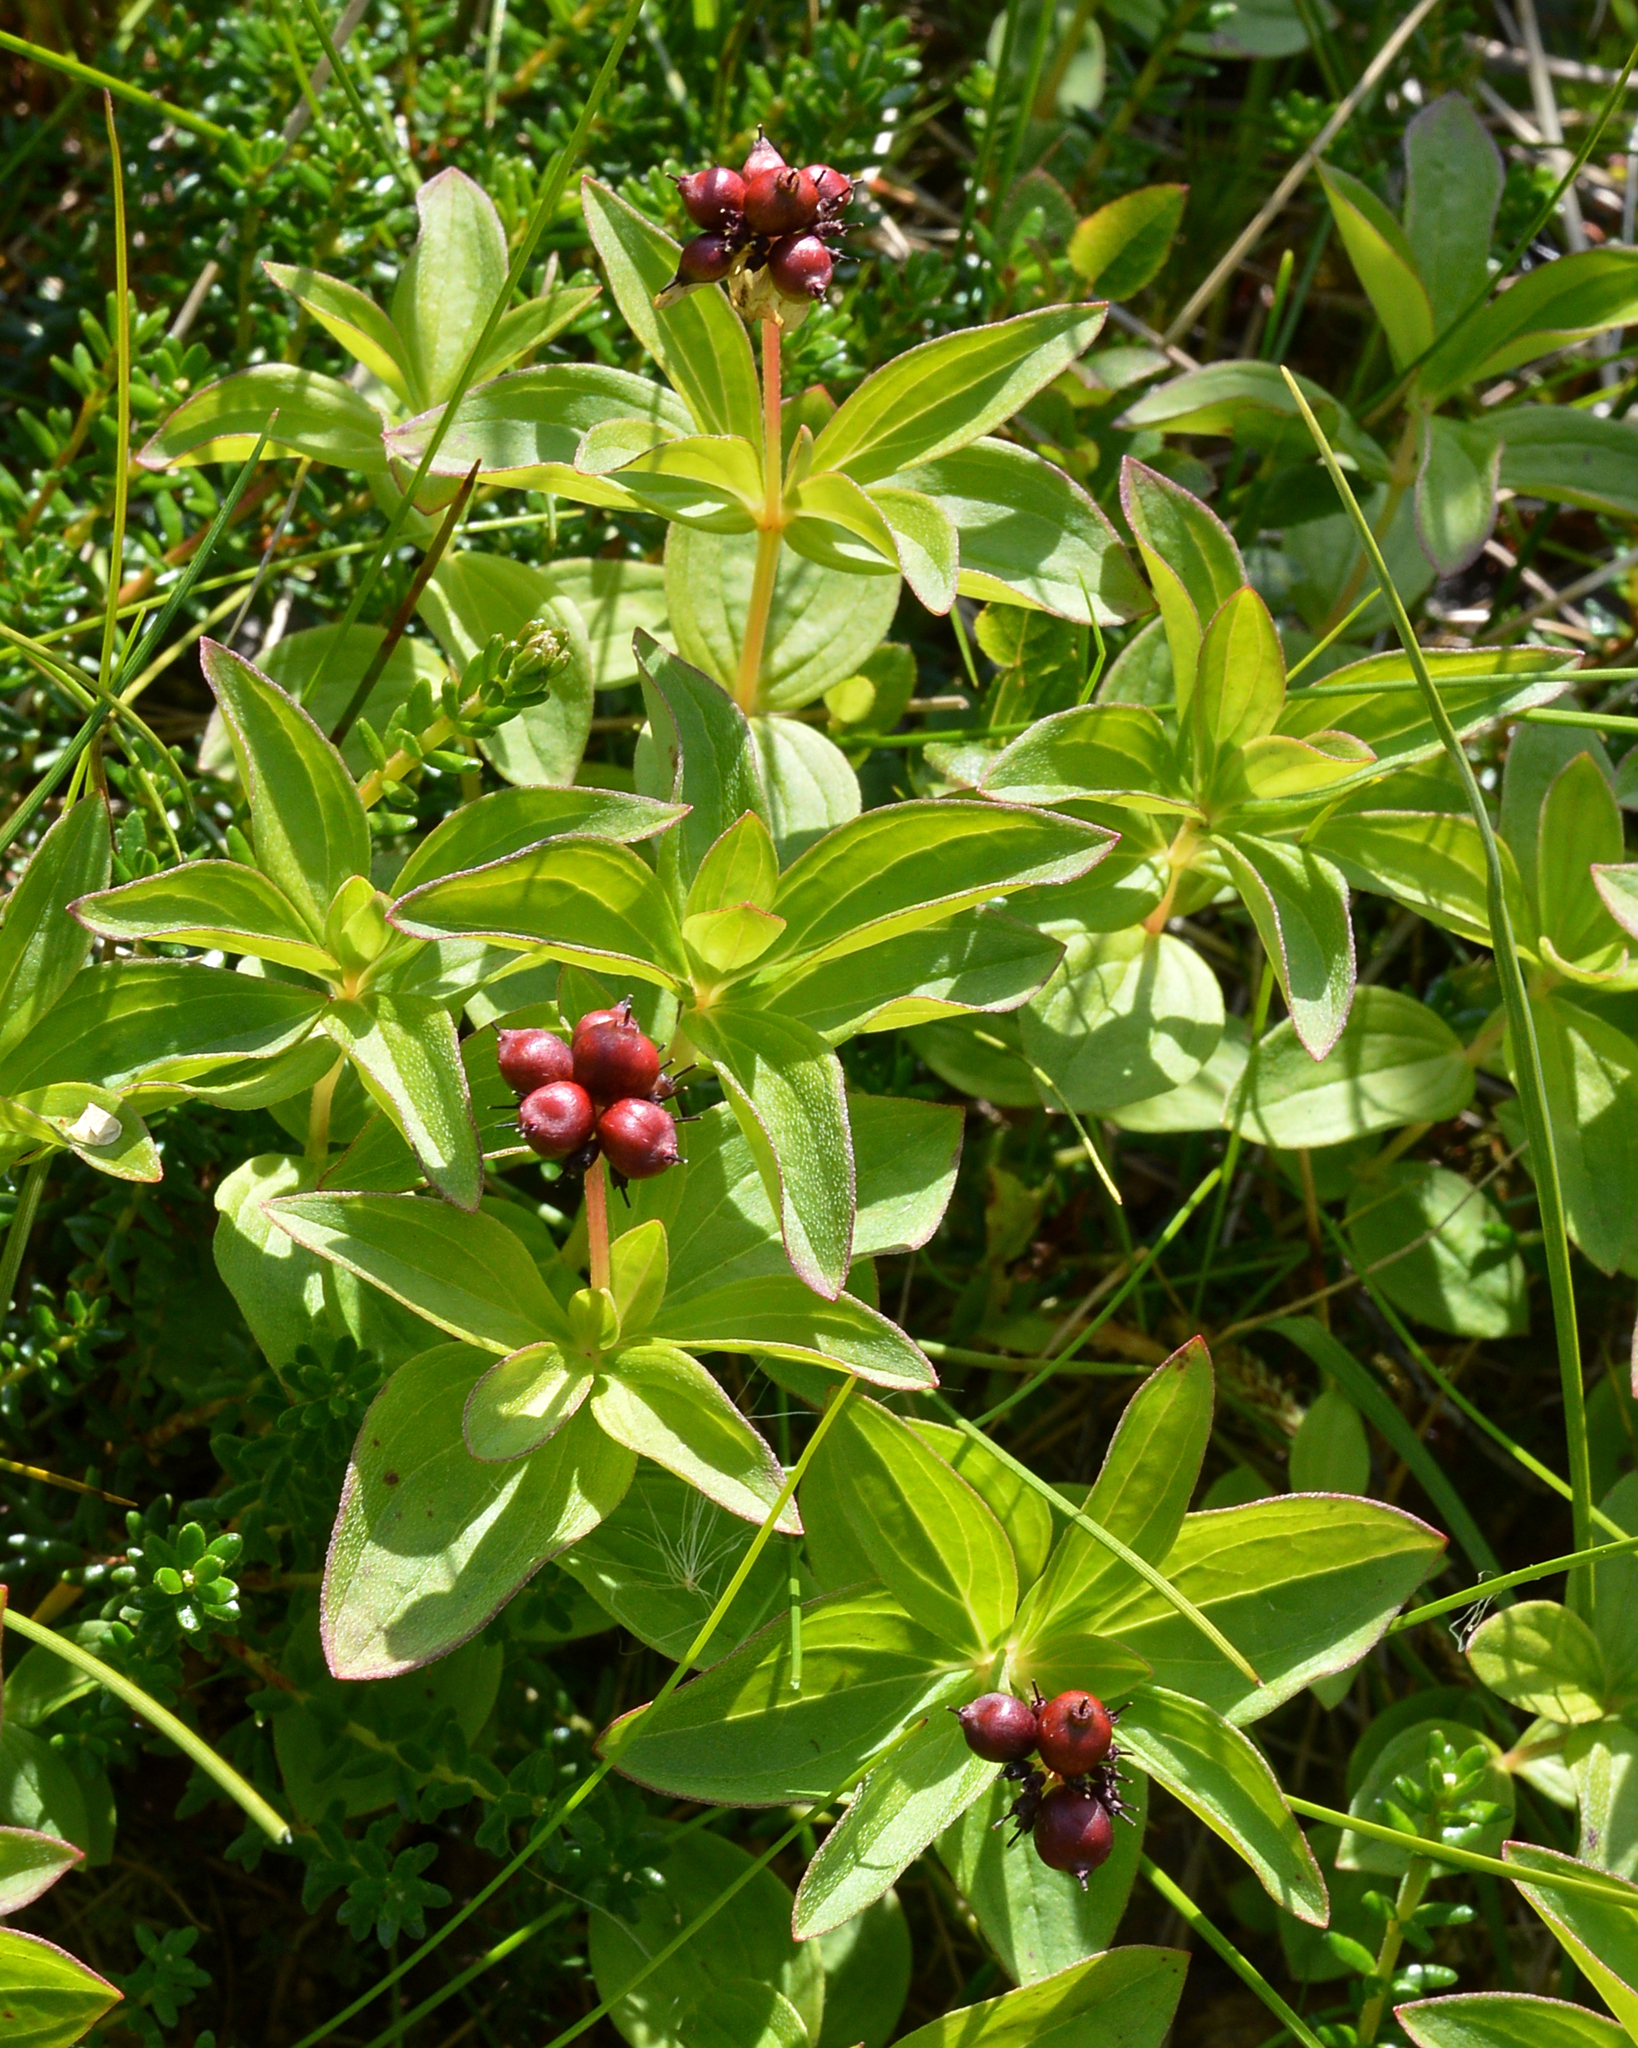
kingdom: Plantae
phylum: Tracheophyta
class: Magnoliopsida
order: Cornales
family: Cornaceae
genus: Cornus
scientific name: Cornus suecica
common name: Dwarf cornel
